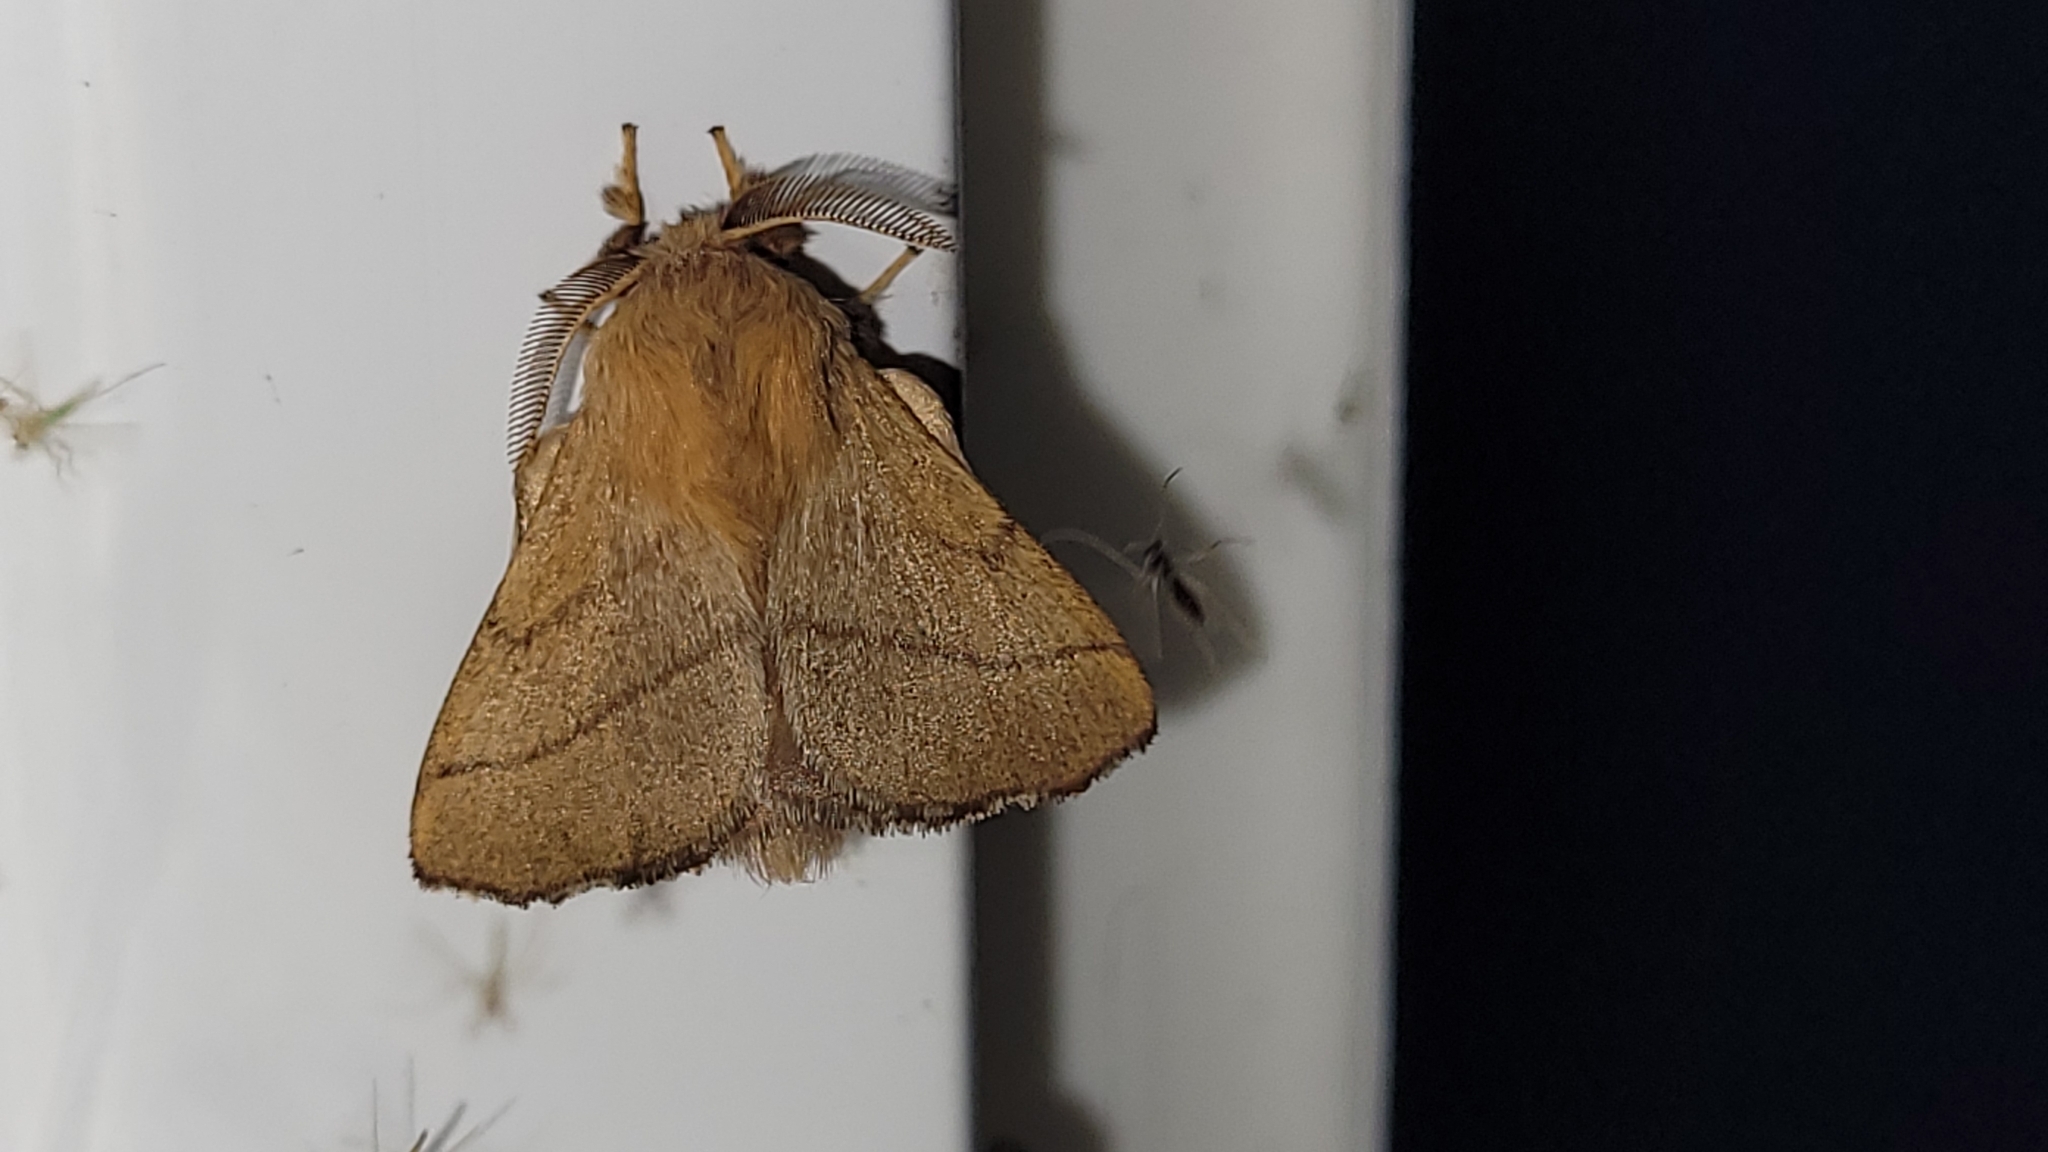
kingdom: Animalia
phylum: Arthropoda
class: Insecta
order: Lepidoptera
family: Lasiocampidae
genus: Malacosoma
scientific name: Malacosoma disstria
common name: Forest tent caterpillar
